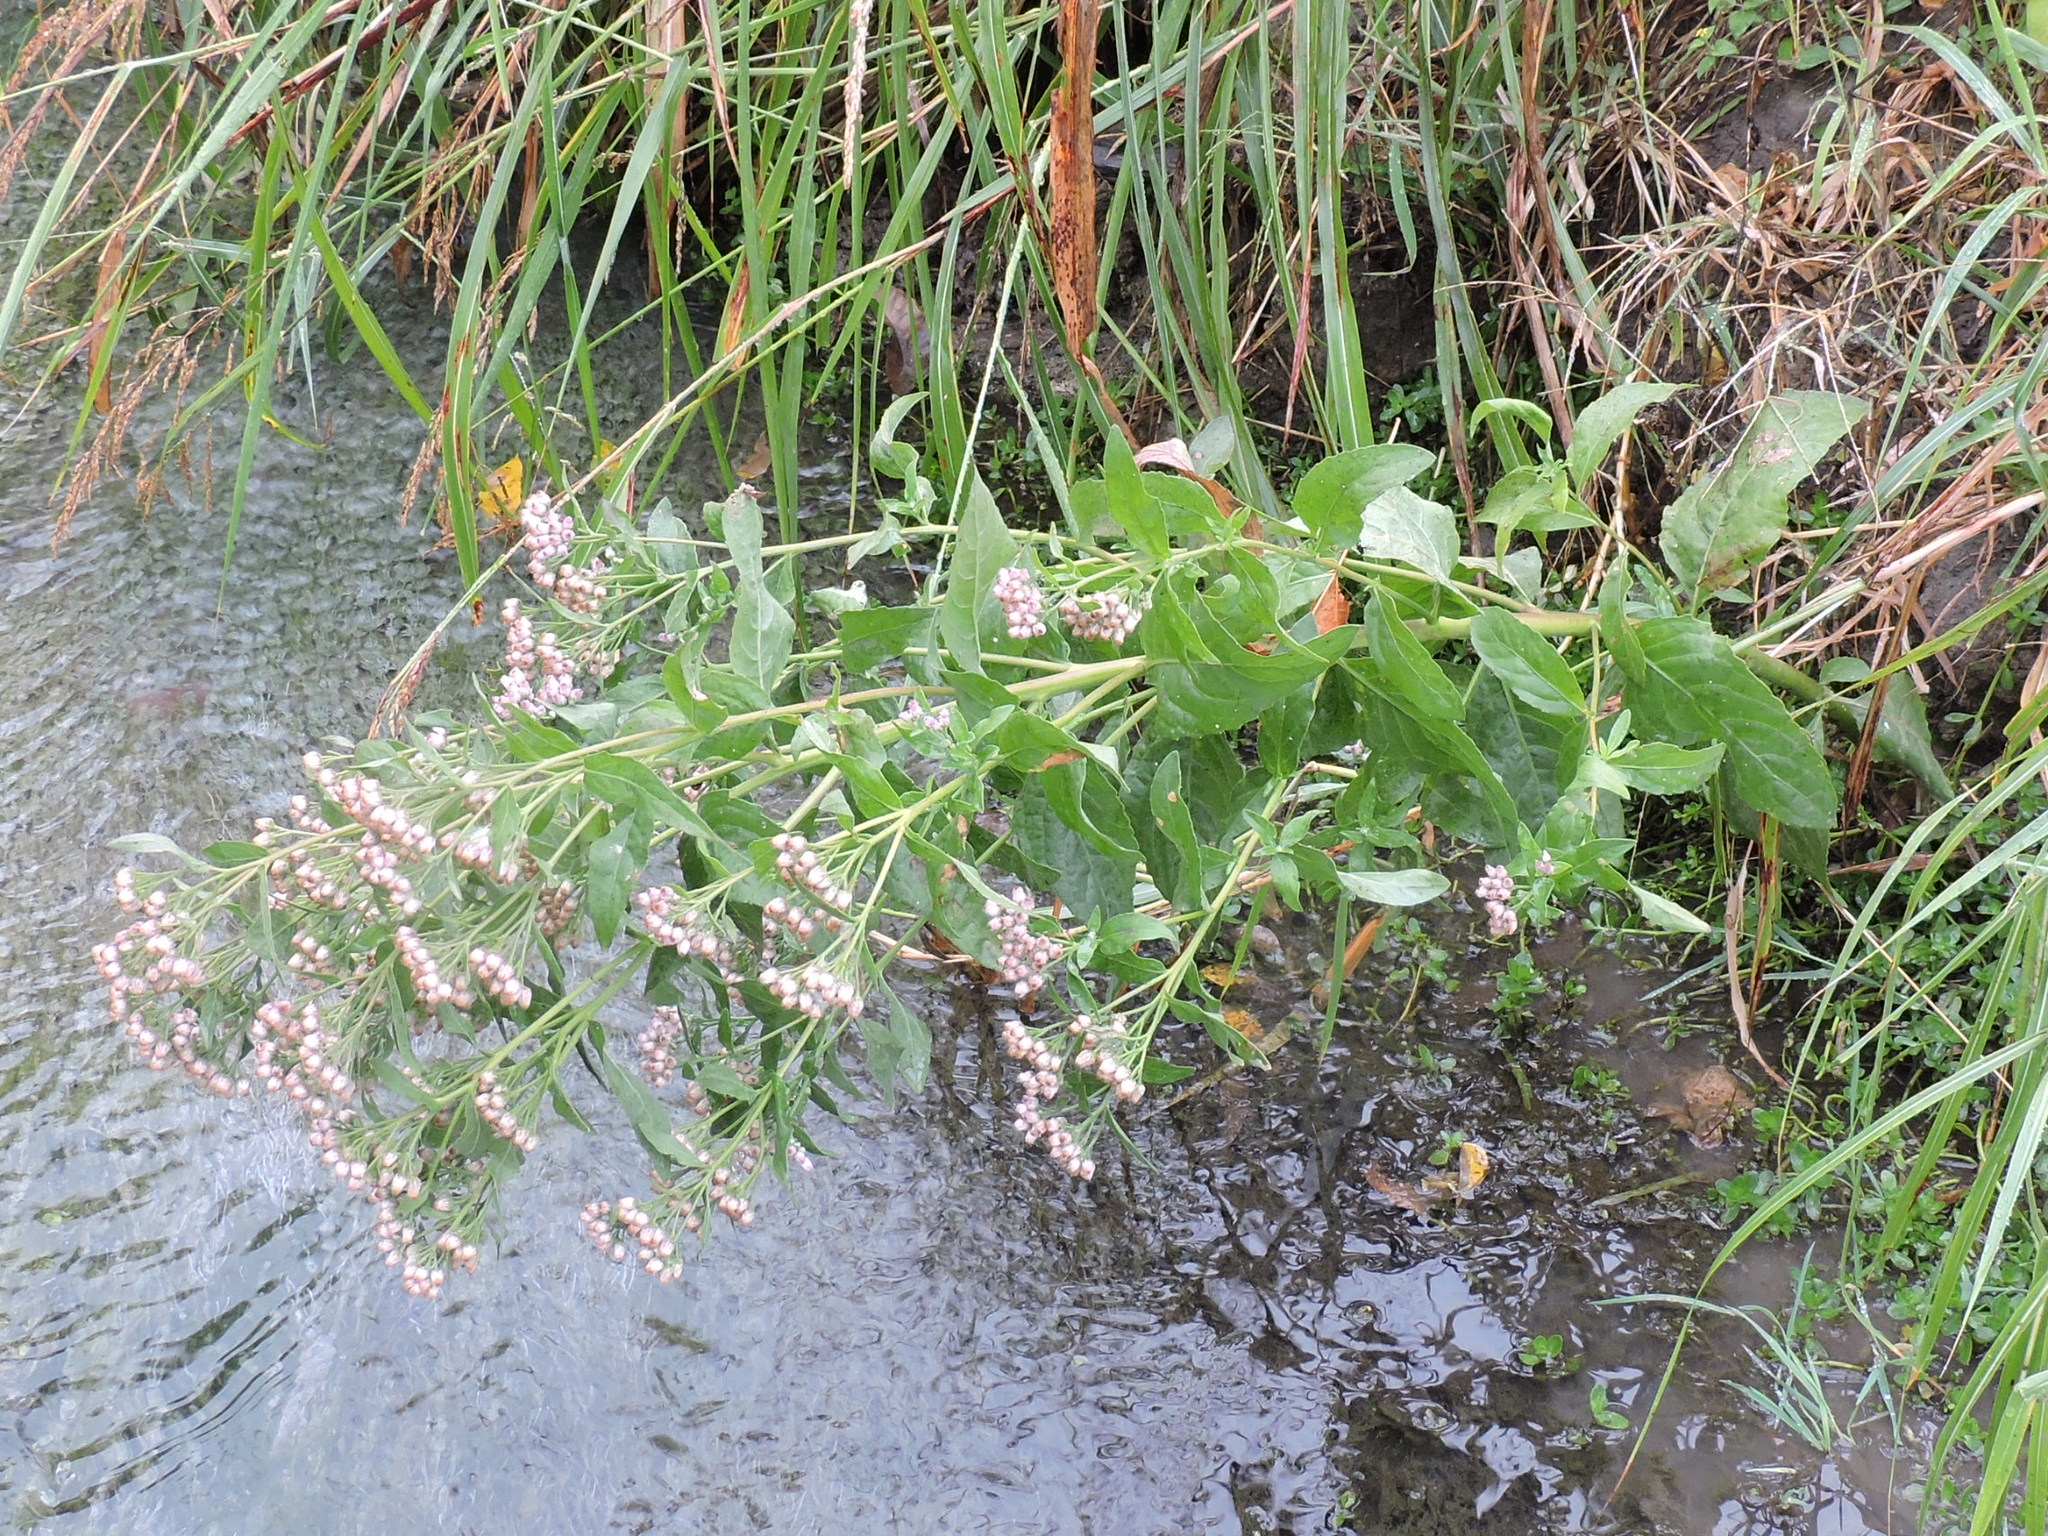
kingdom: Plantae
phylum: Tracheophyta
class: Magnoliopsida
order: Asterales
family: Asteraceae
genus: Pluchea
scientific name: Pluchea odorata
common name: Saltmarsh fleabane
